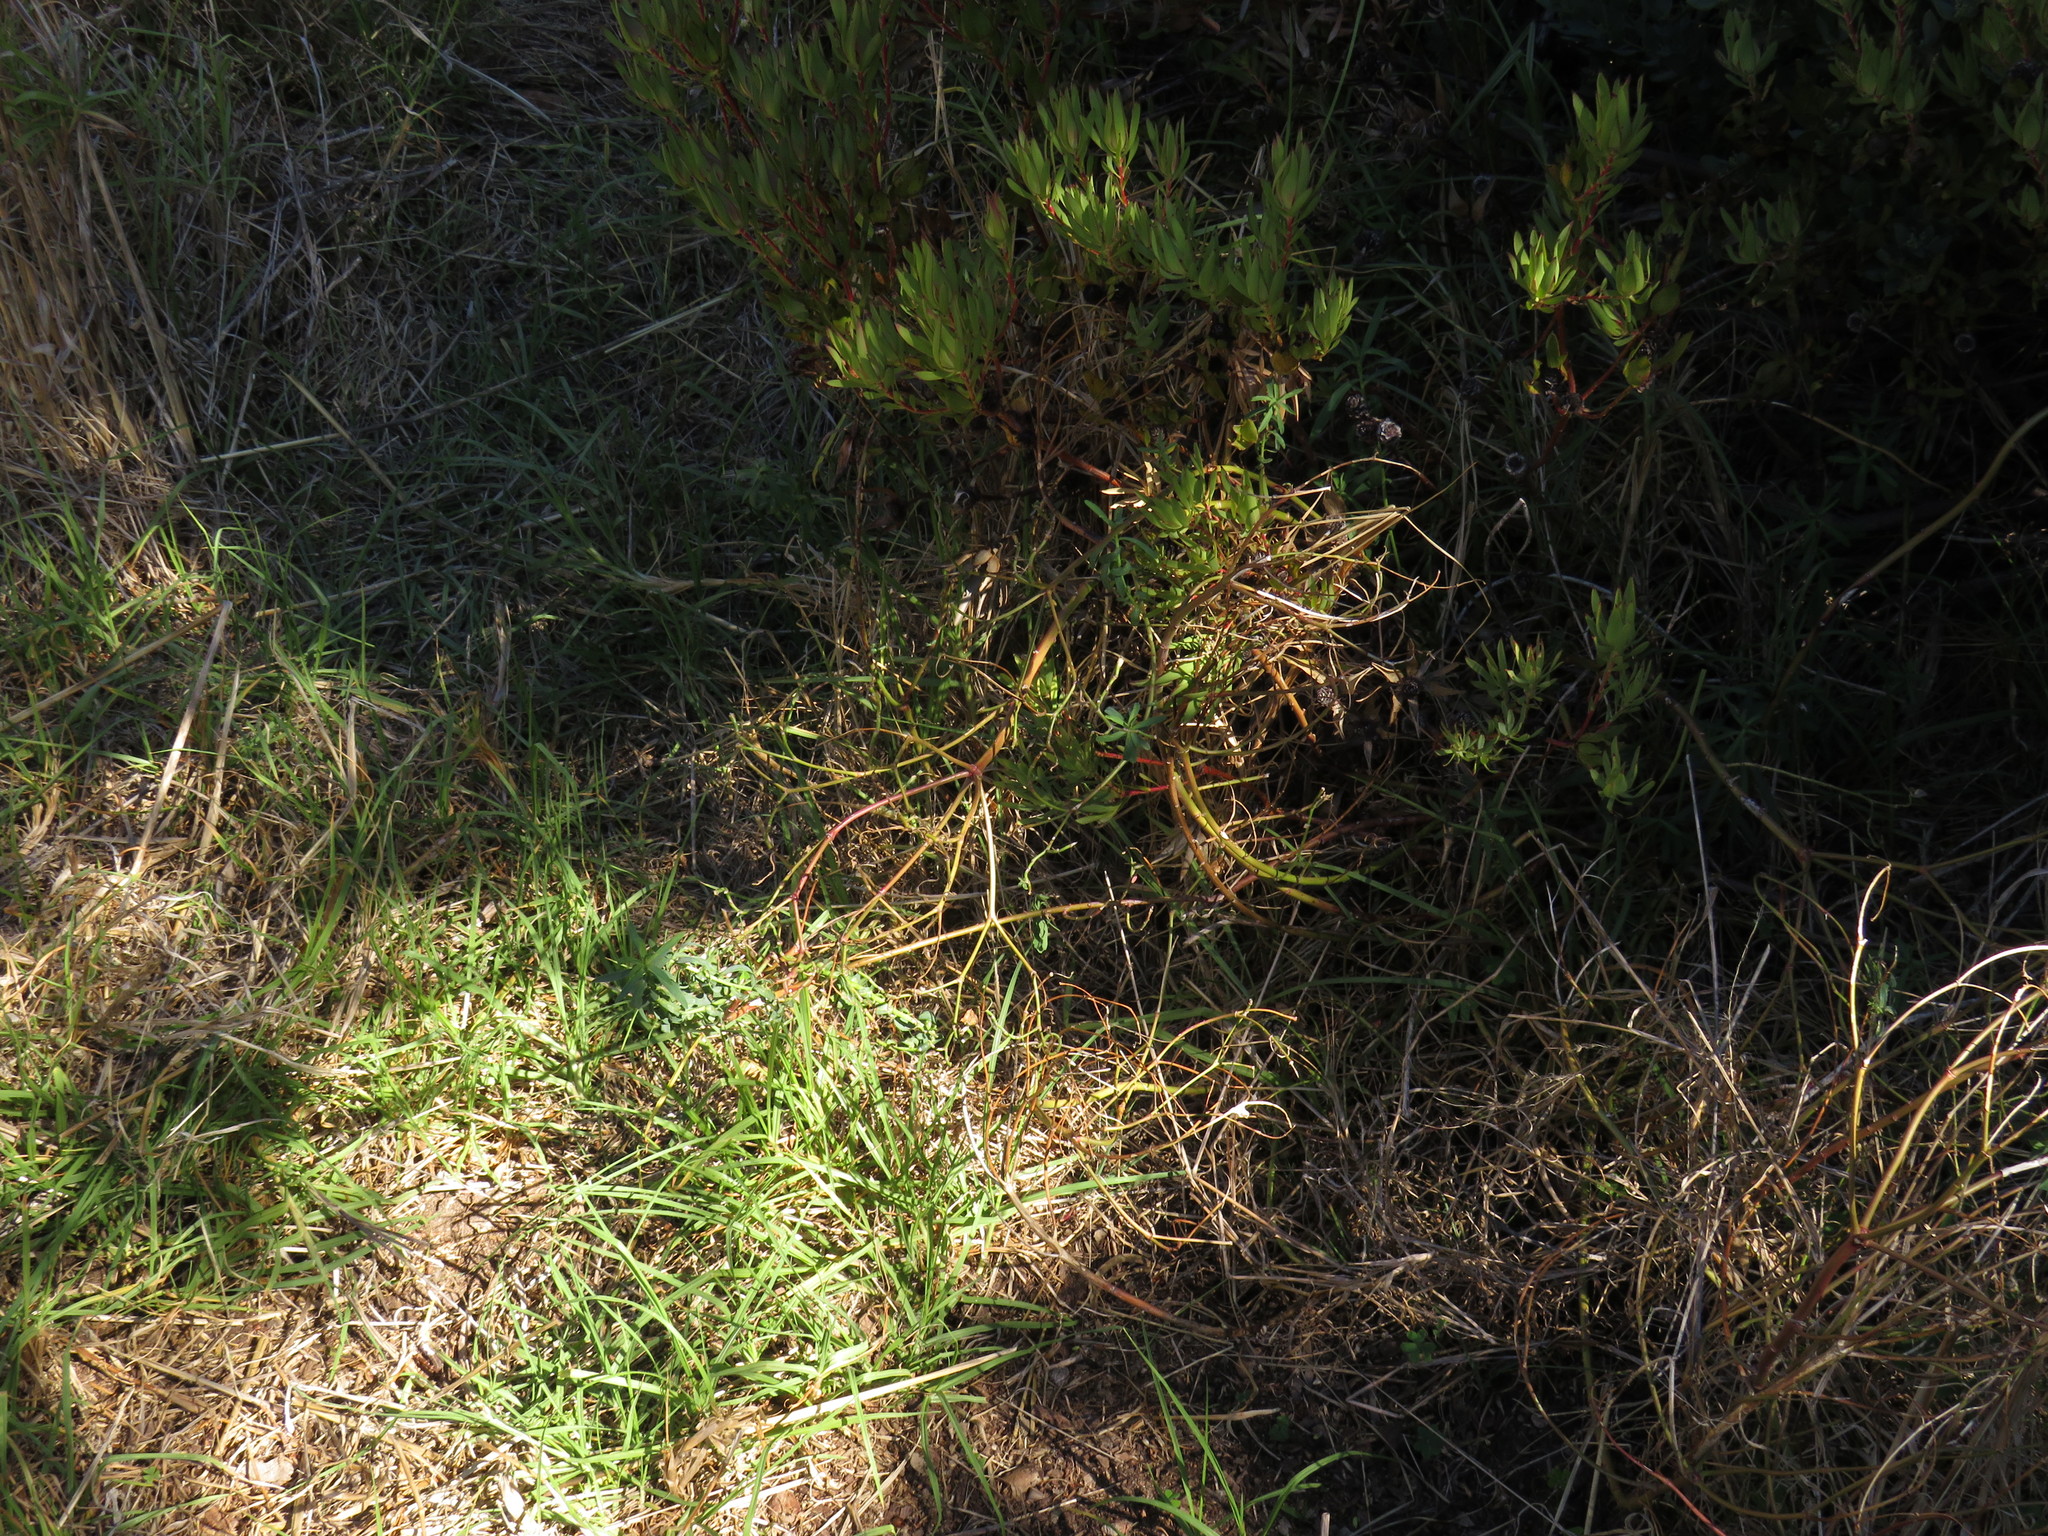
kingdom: Plantae
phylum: Tracheophyta
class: Magnoliopsida
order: Malpighiales
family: Euphorbiaceae
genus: Euphorbia
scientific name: Euphorbia terracina
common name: Geraldton carnation weed
